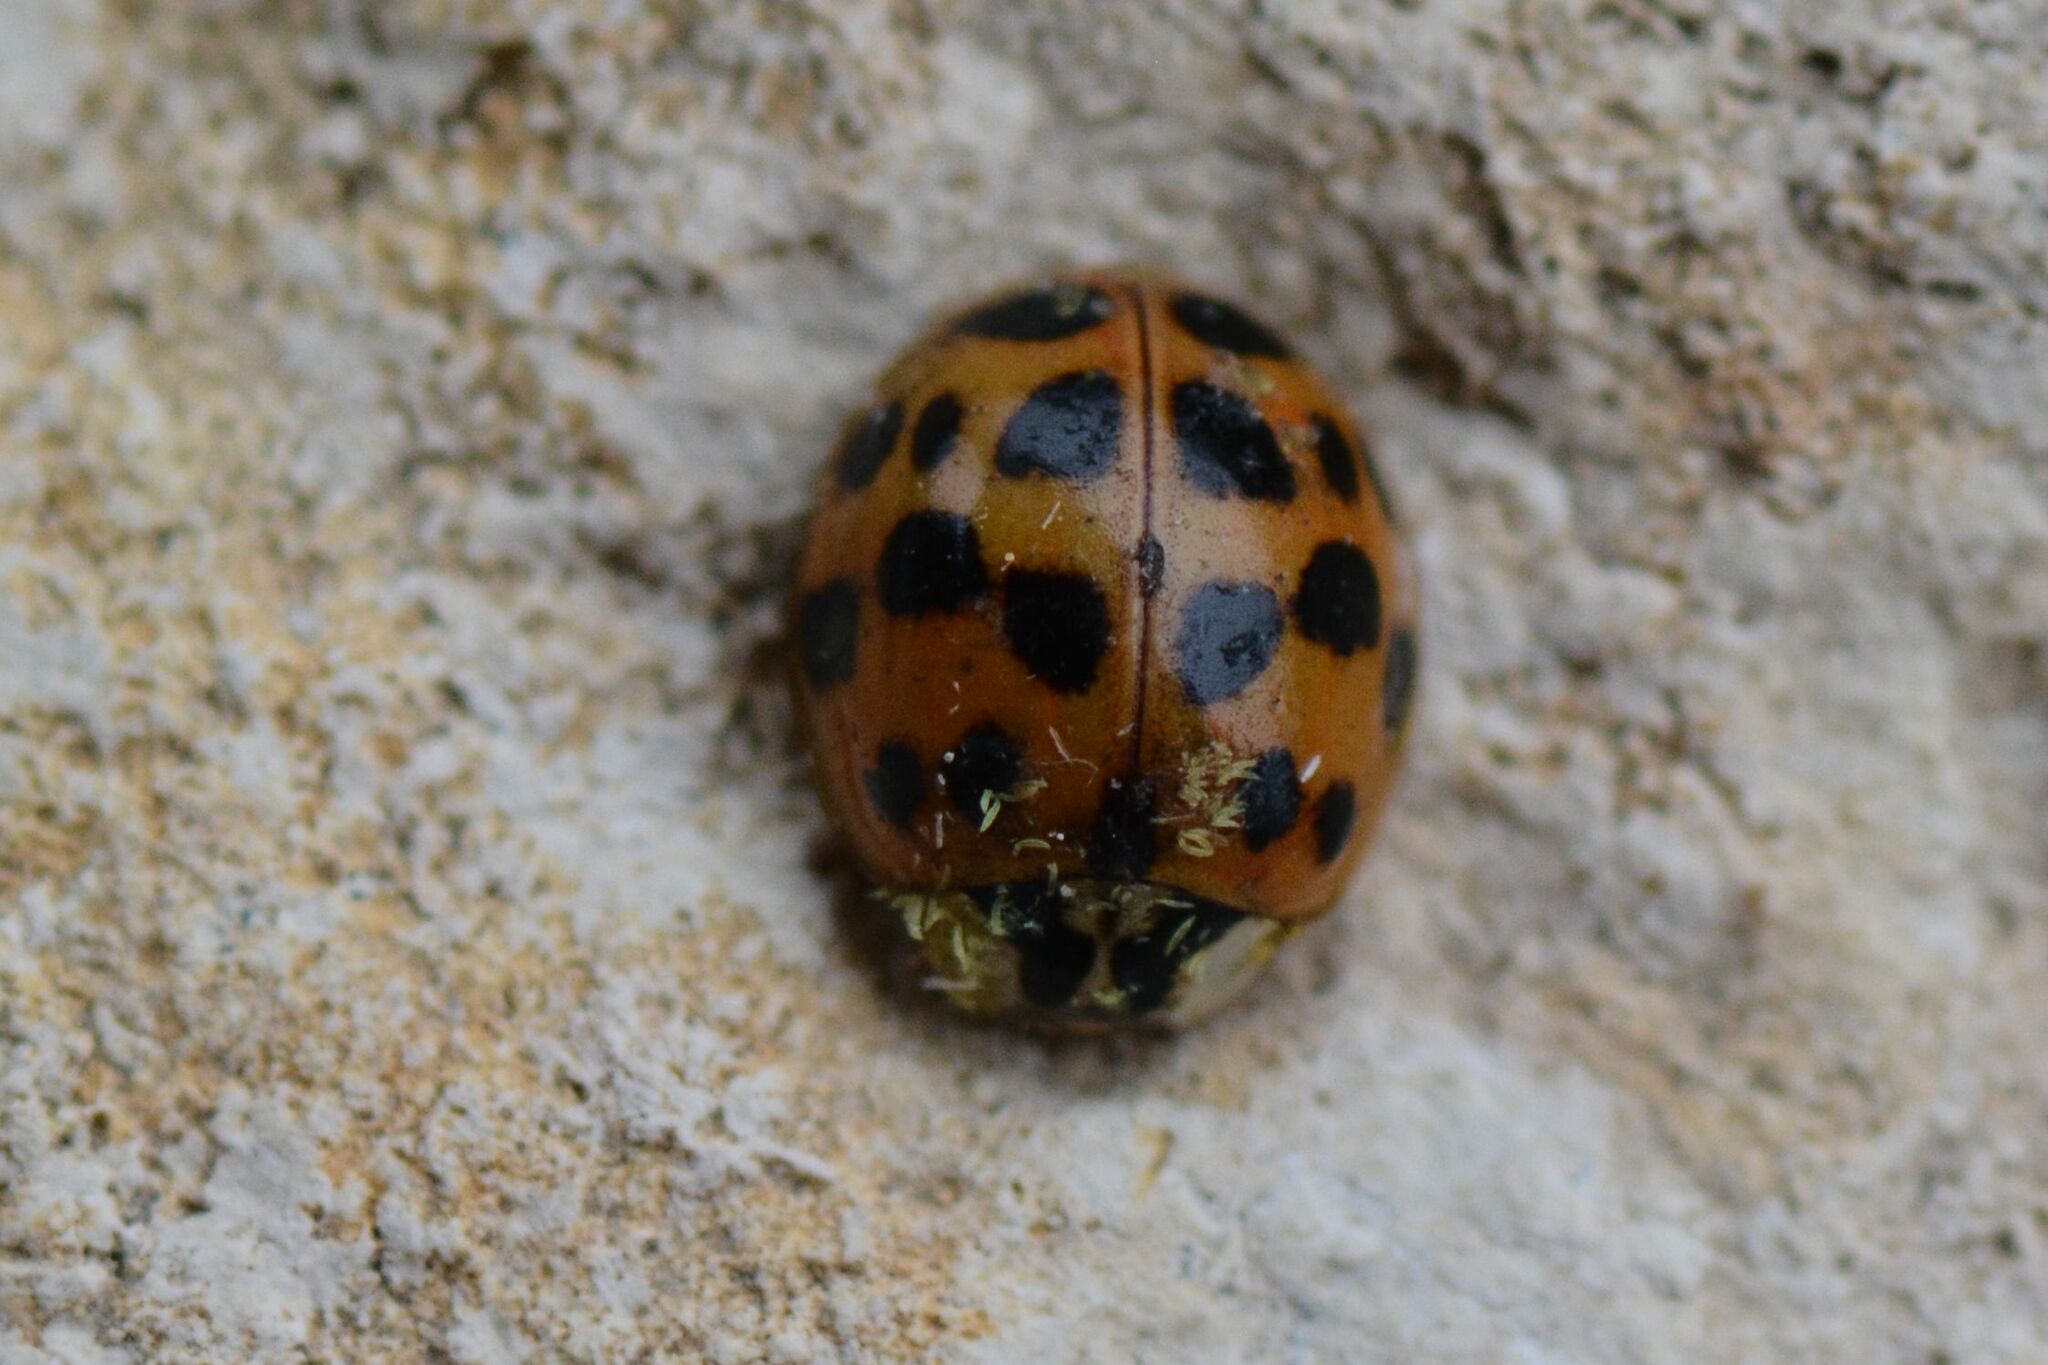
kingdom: Animalia
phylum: Arthropoda
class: Insecta
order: Coleoptera
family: Coccinellidae
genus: Harmonia
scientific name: Harmonia axyridis
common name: Harlequin ladybird
